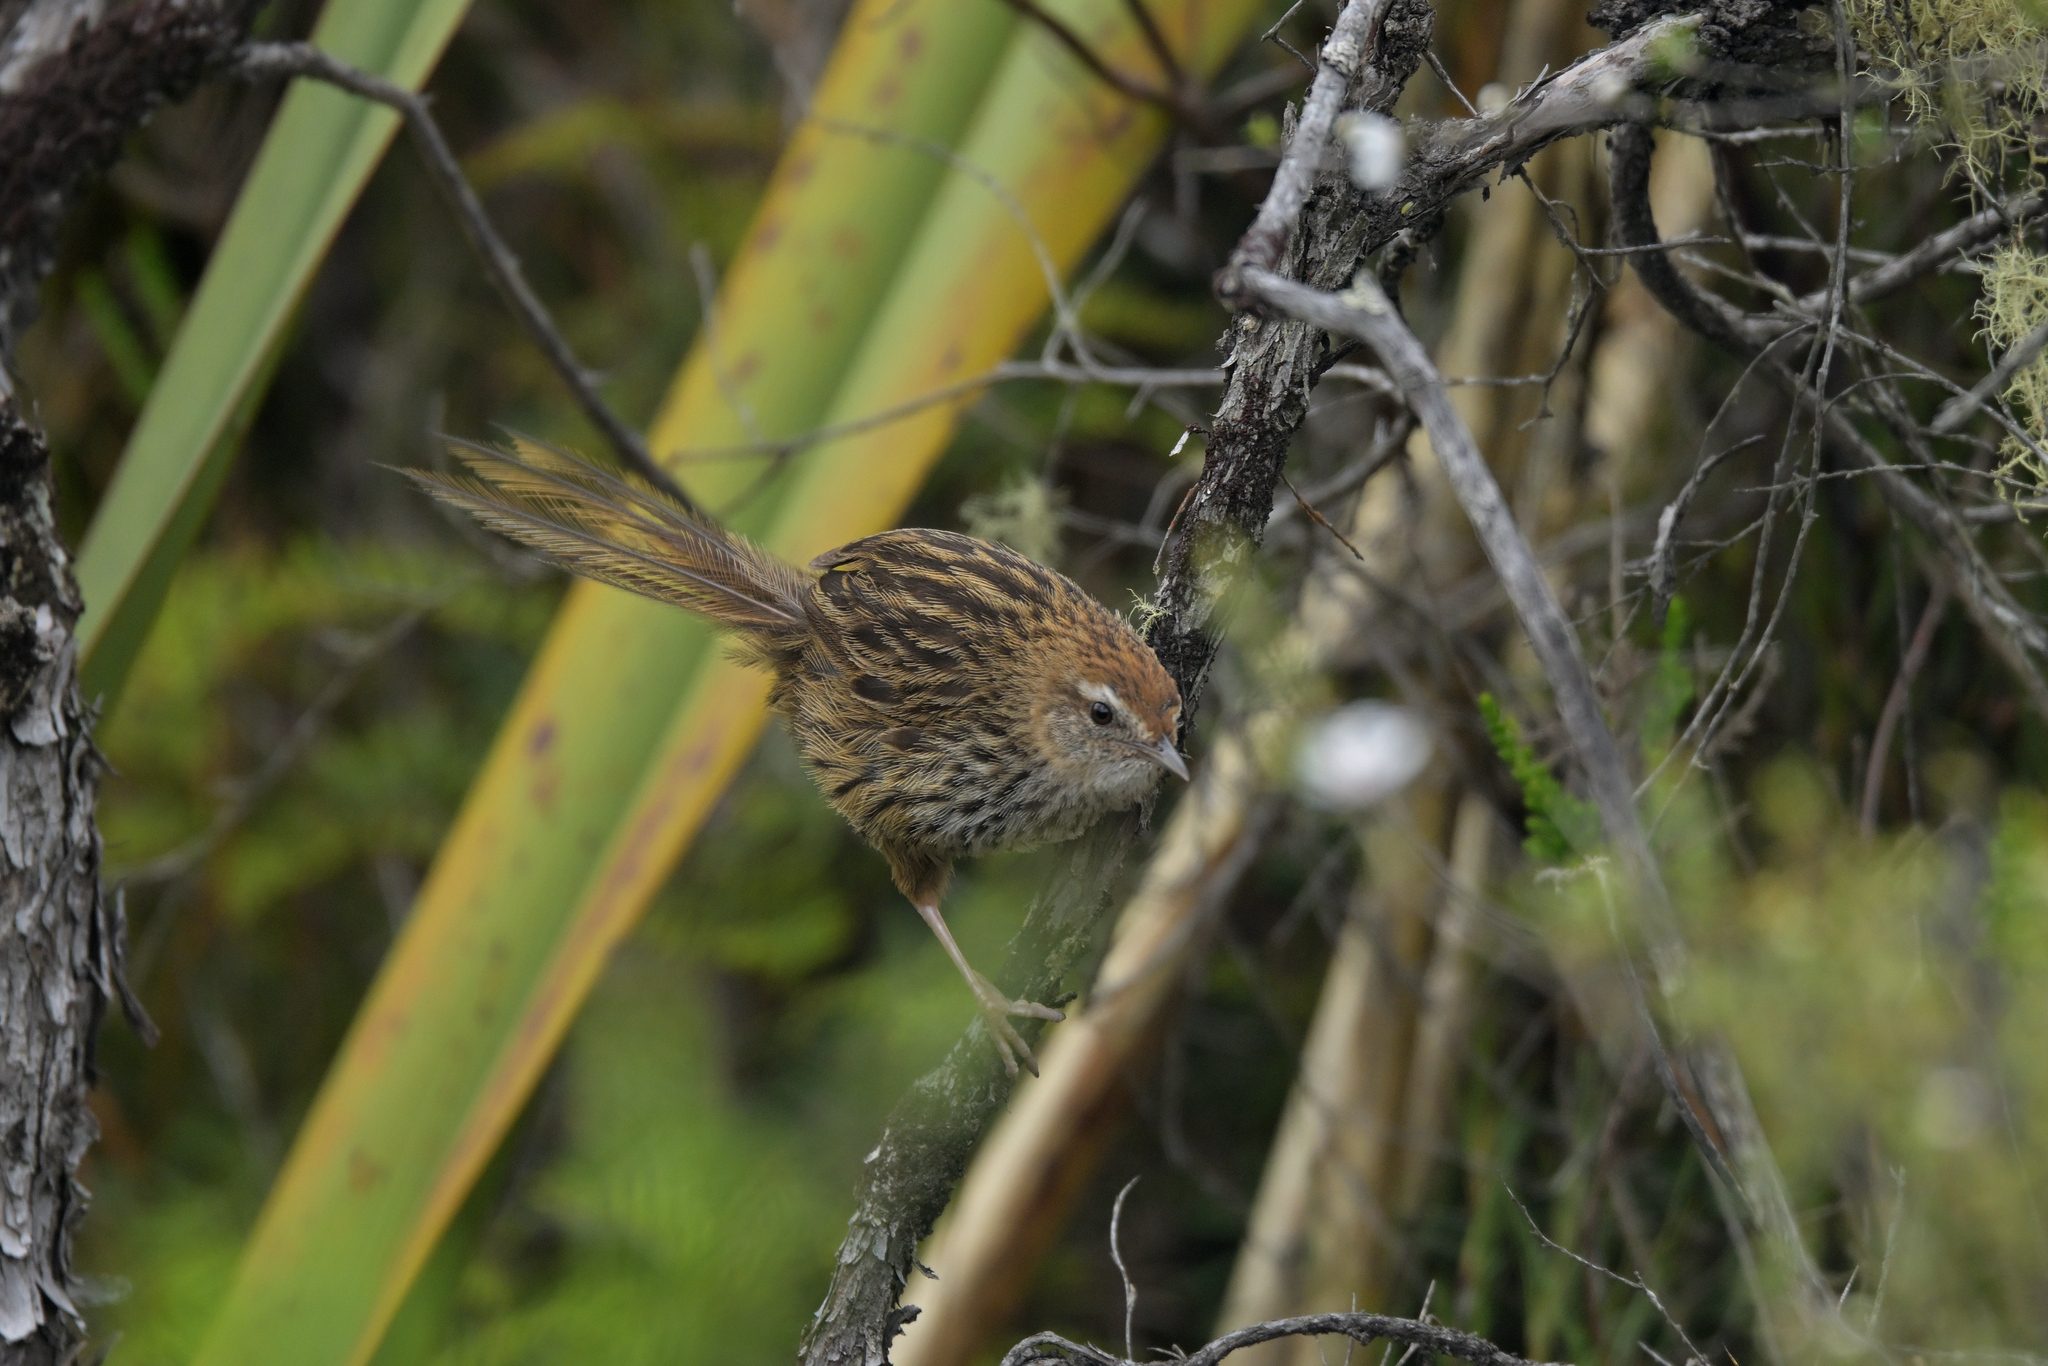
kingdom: Animalia
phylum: Chordata
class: Aves
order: Passeriformes
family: Locustellidae
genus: Megalurus
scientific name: Megalurus punctatus
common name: New zealand fernbird
